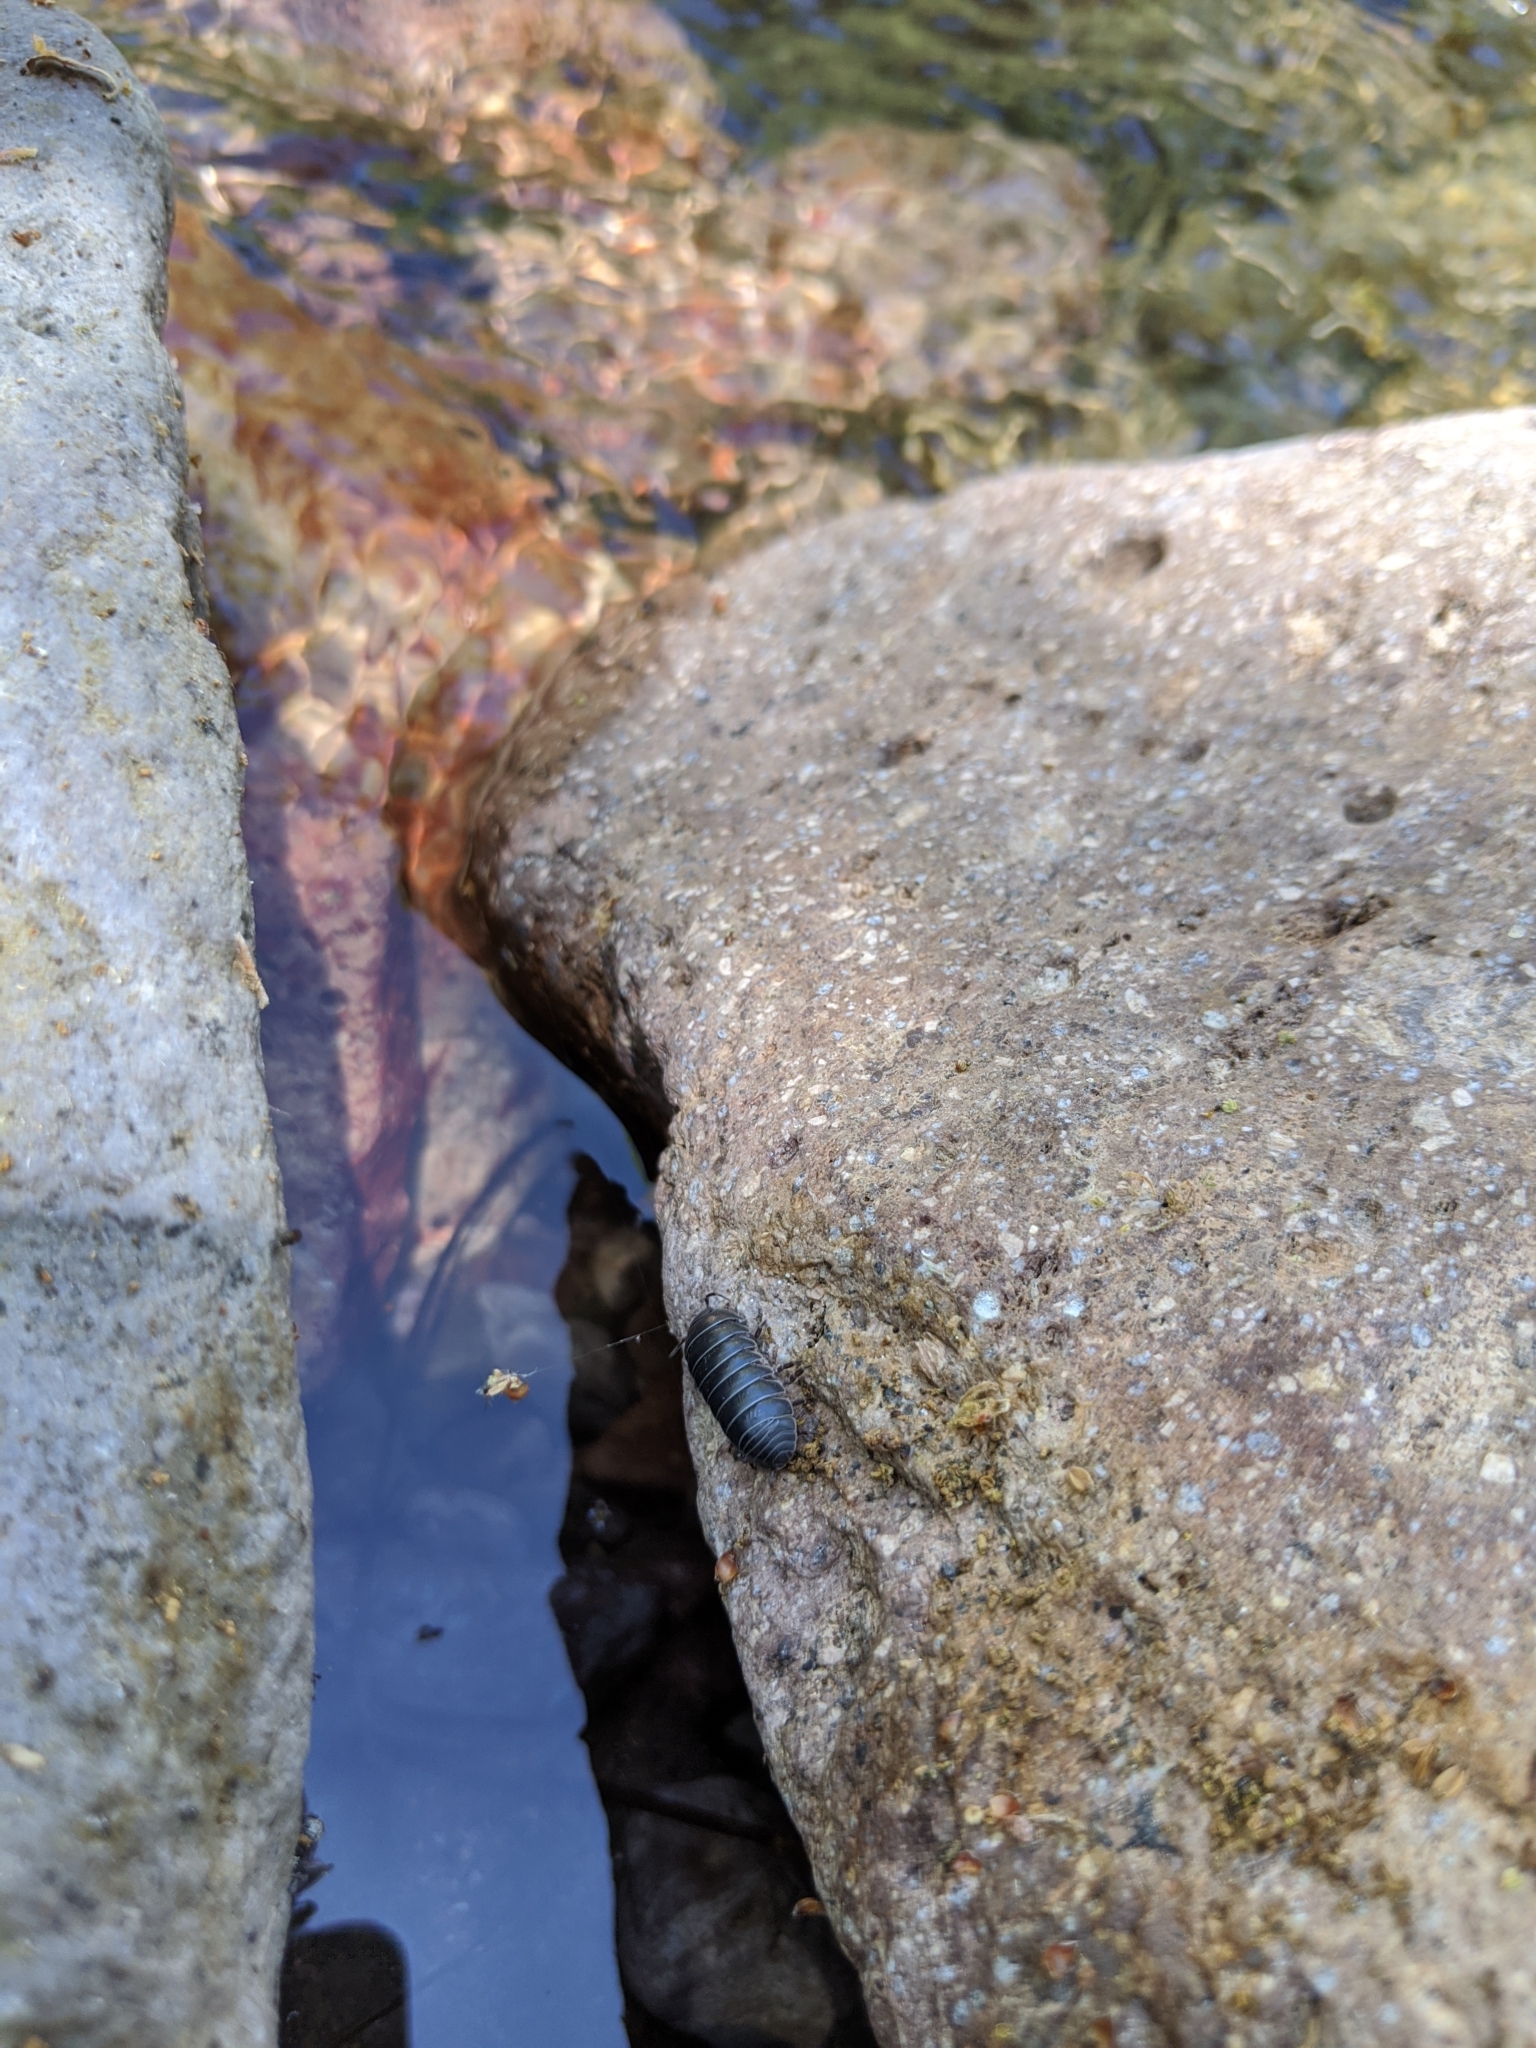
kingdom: Animalia
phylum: Arthropoda
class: Malacostraca
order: Isopoda
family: Armadillidiidae
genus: Armadillidium
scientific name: Armadillidium vulgare
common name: Common pill woodlouse
